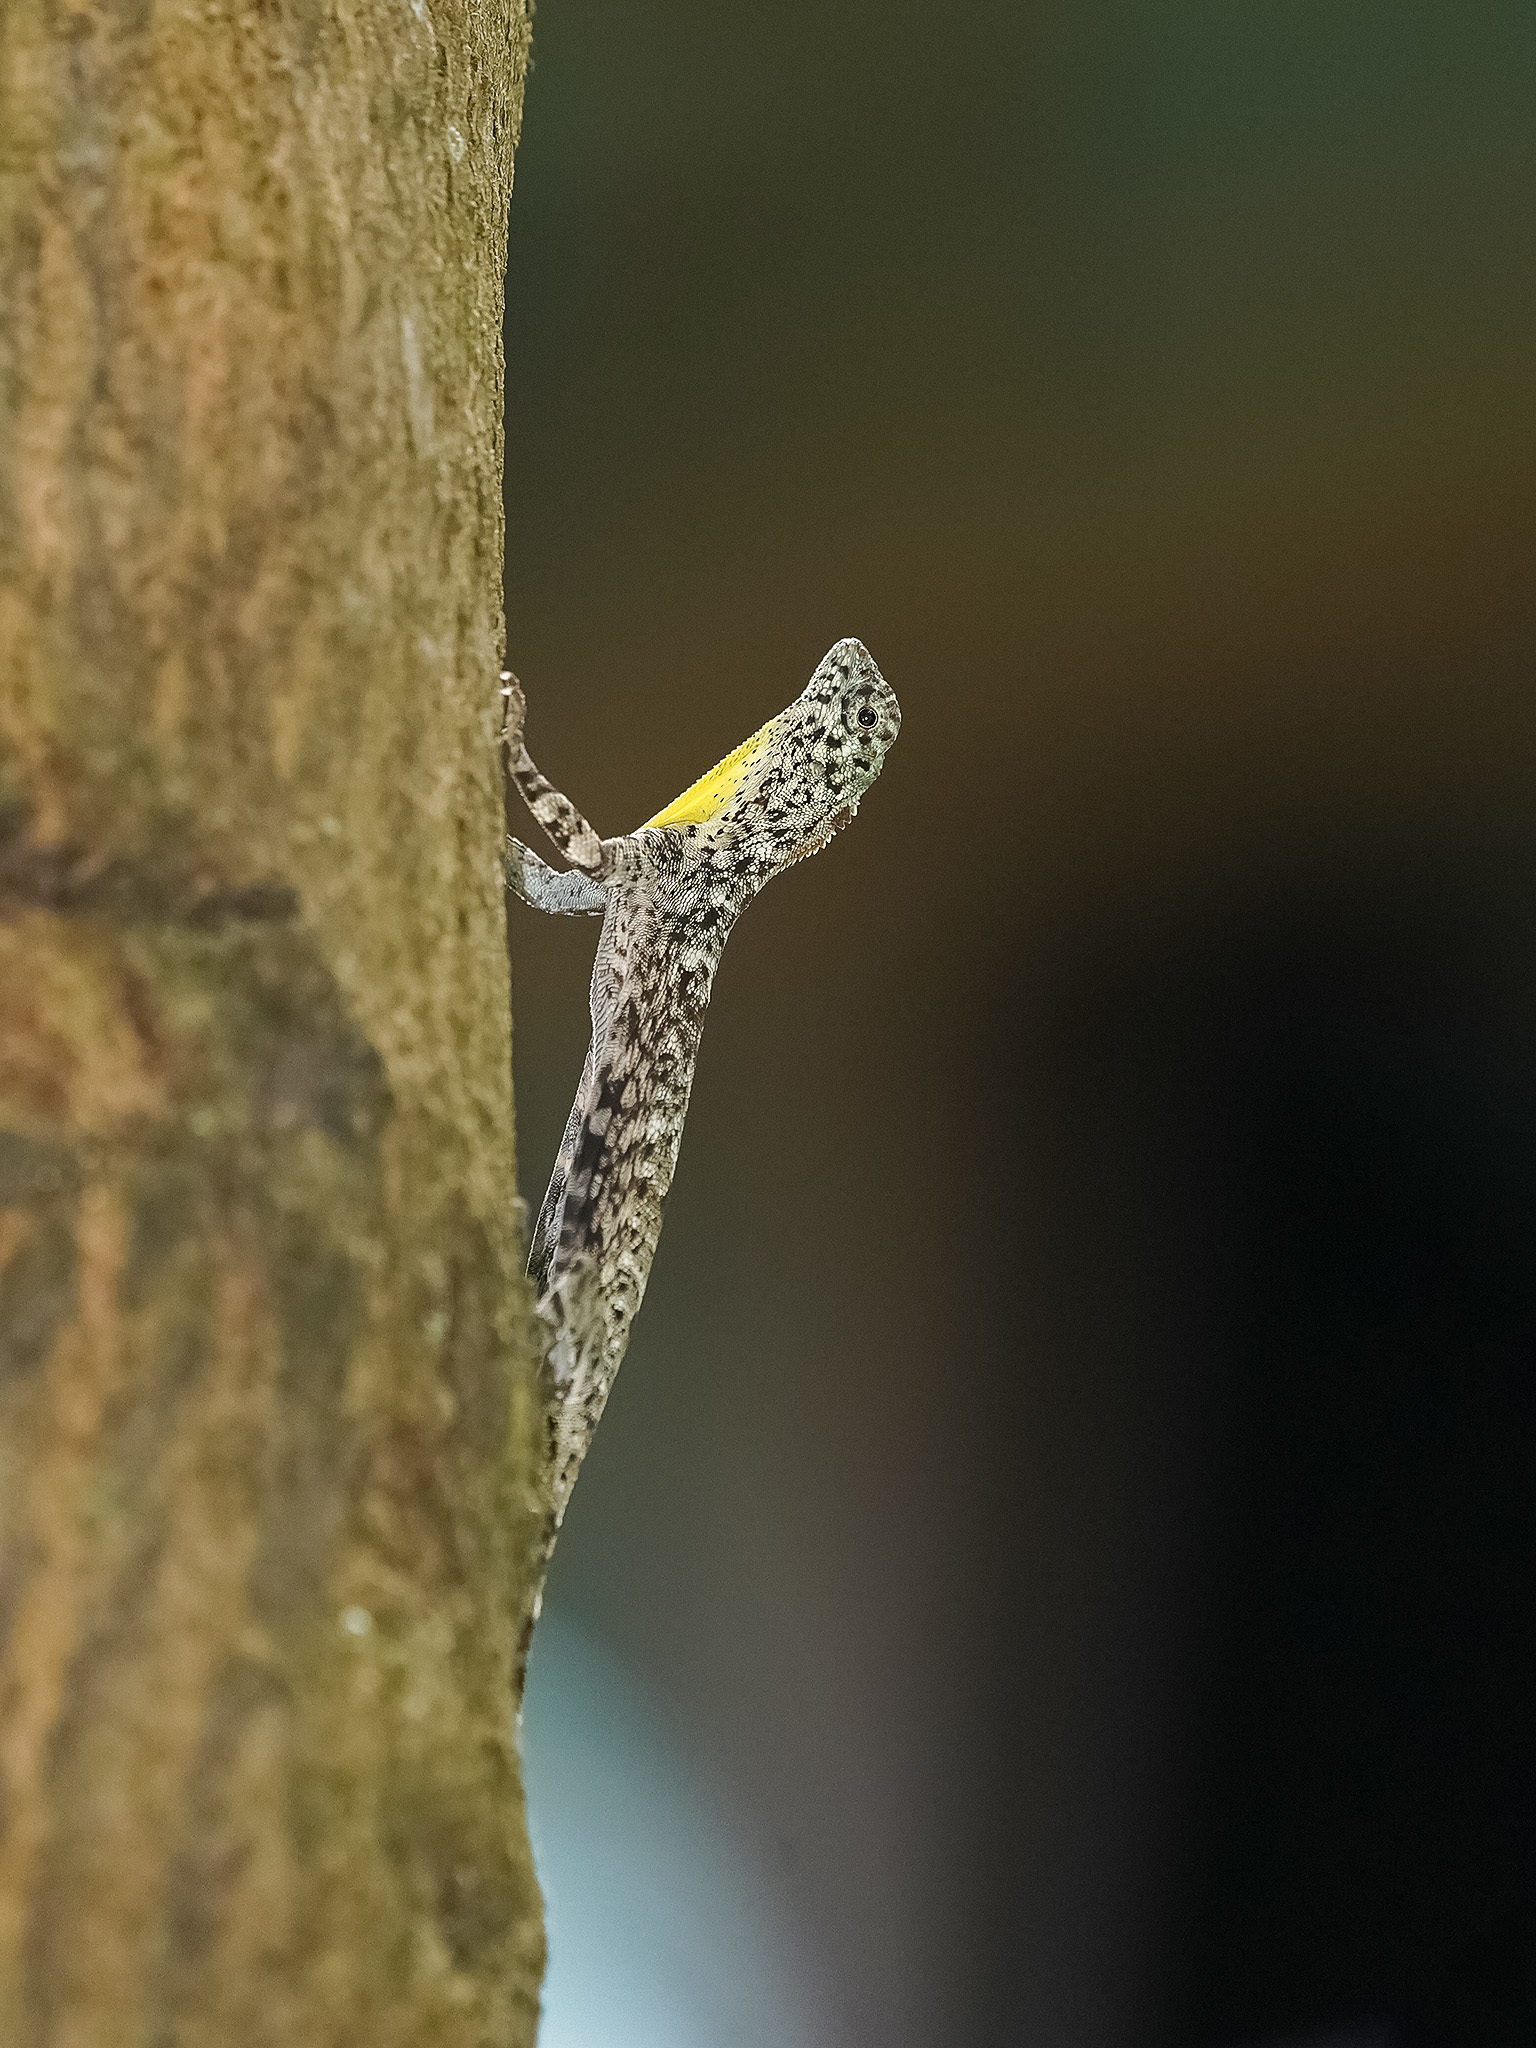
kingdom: Animalia
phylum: Chordata
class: Squamata
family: Agamidae
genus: Draco
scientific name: Draco sumatranus
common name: Common gliding lizard
